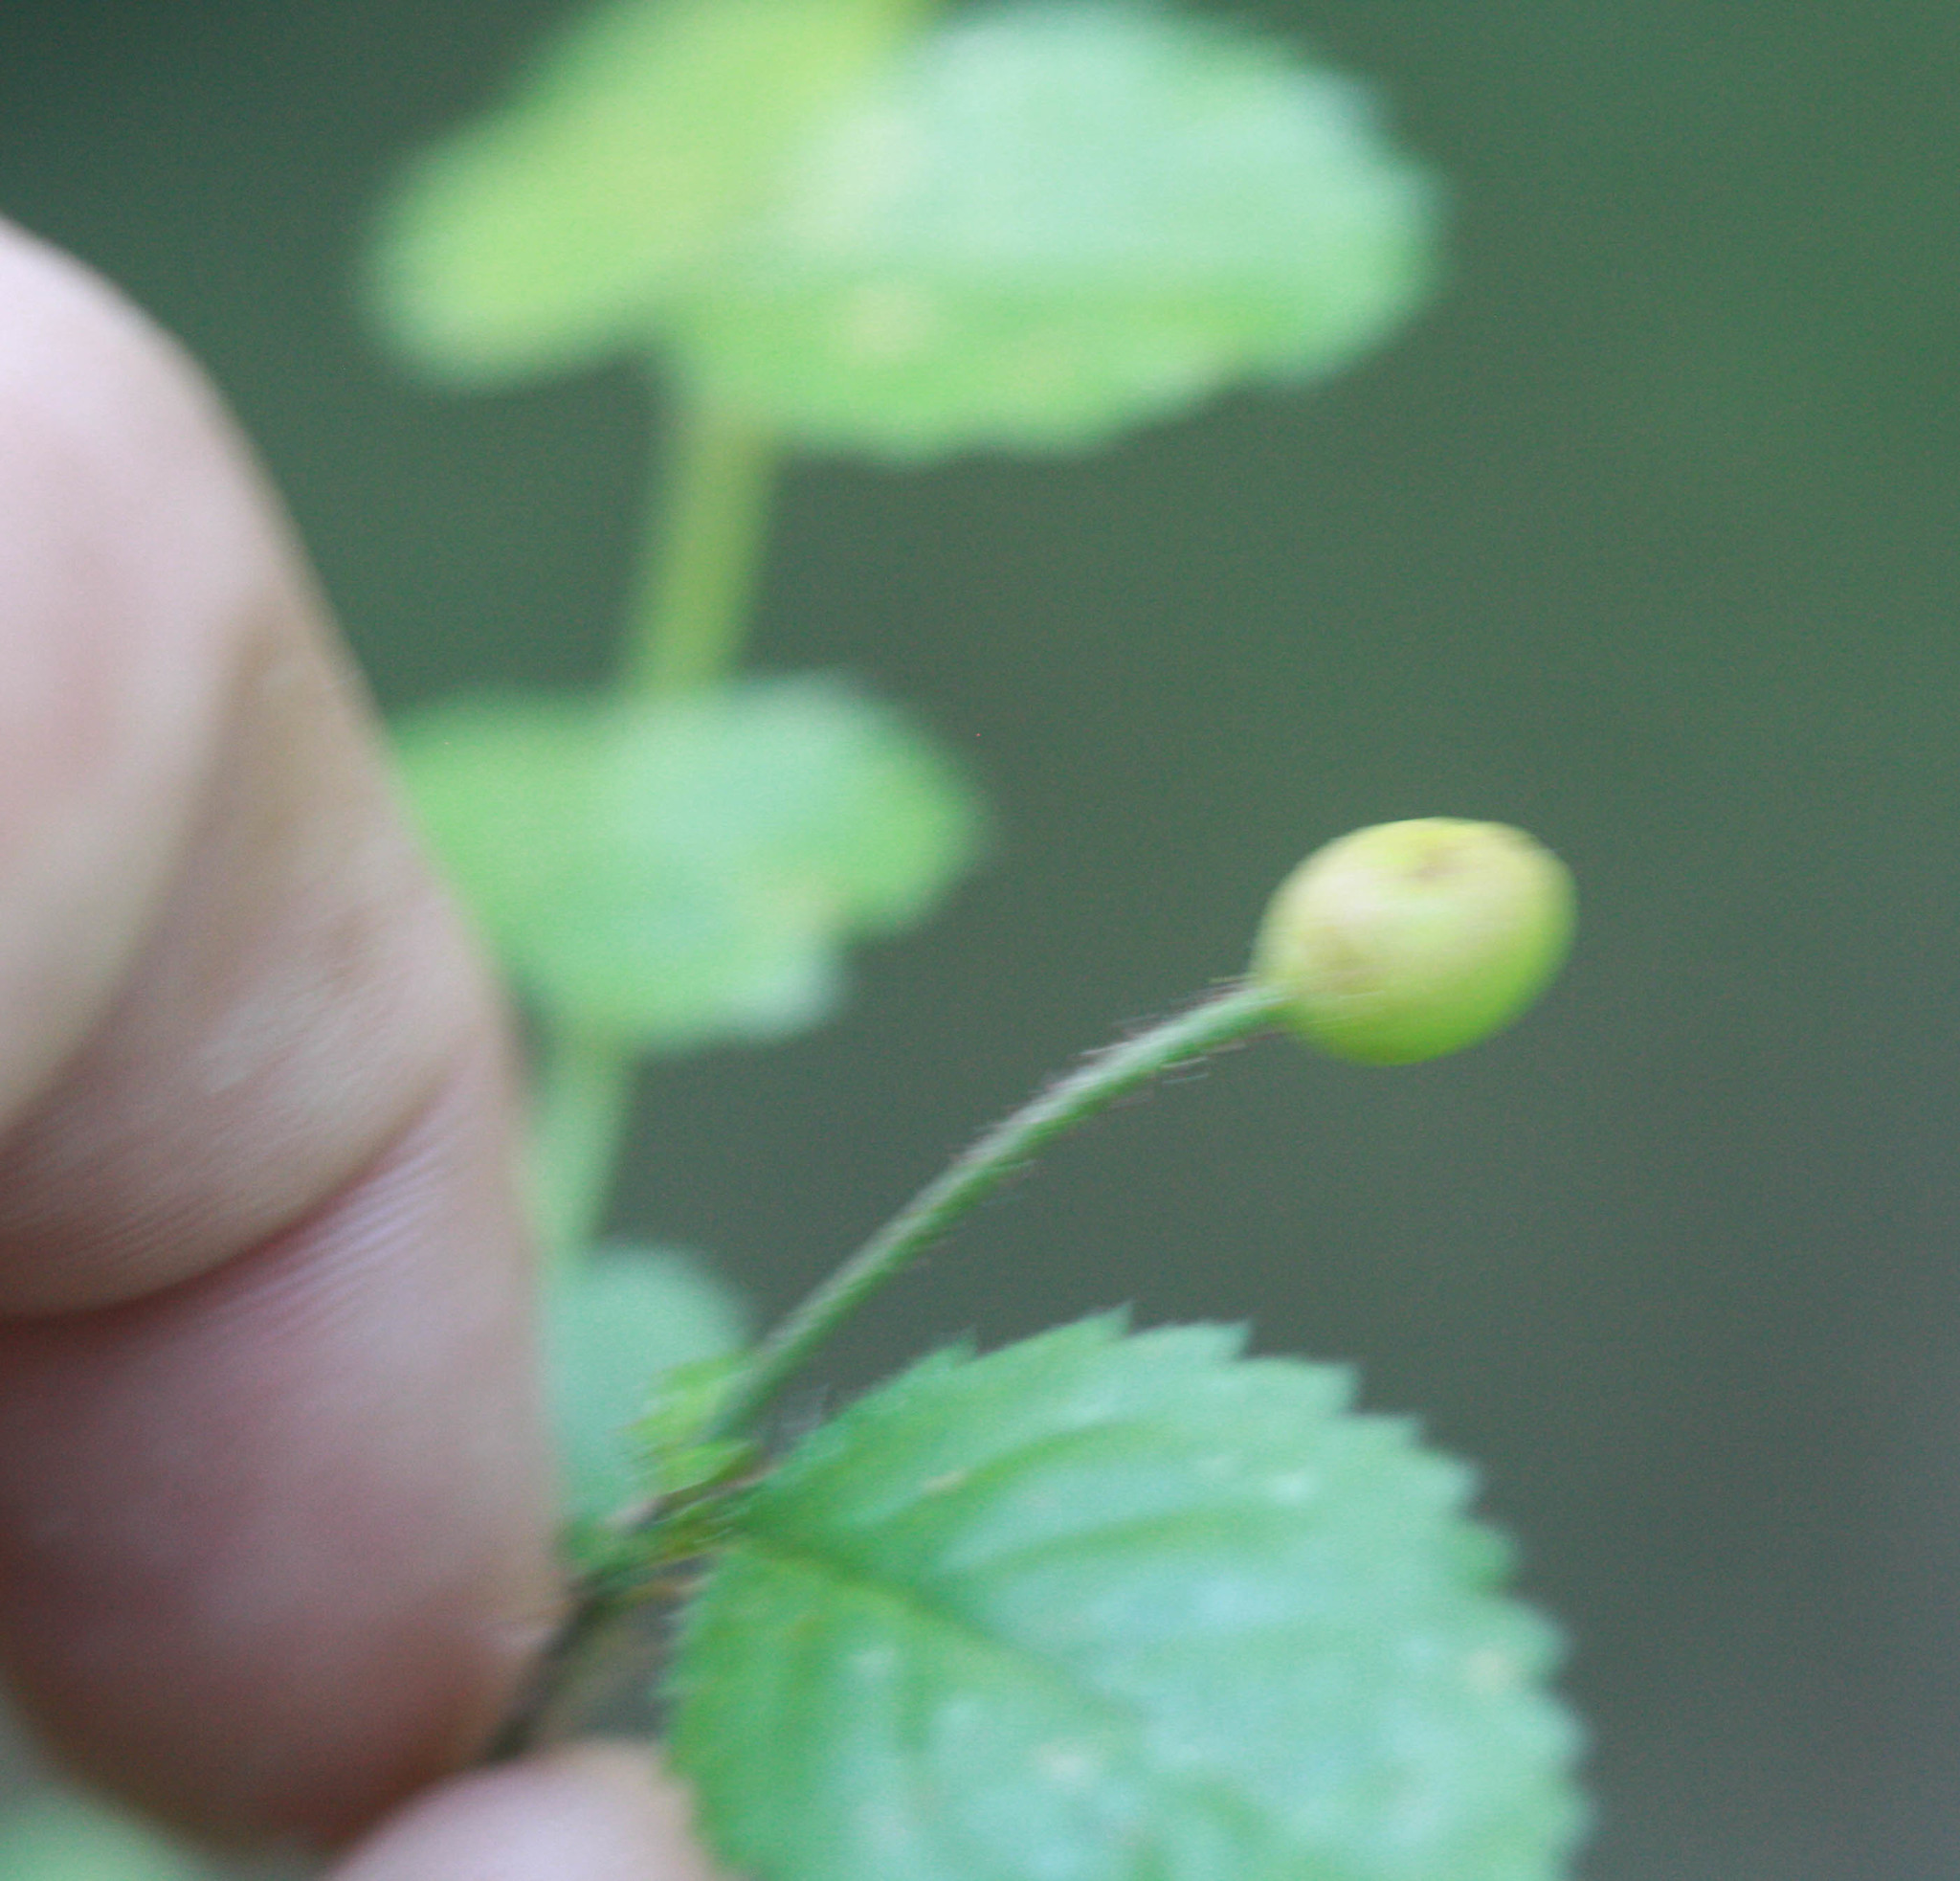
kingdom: Plantae
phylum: Tracheophyta
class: Magnoliopsida
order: Rosales
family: Rosaceae
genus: Rosa
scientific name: Rosa gymnocarpa
